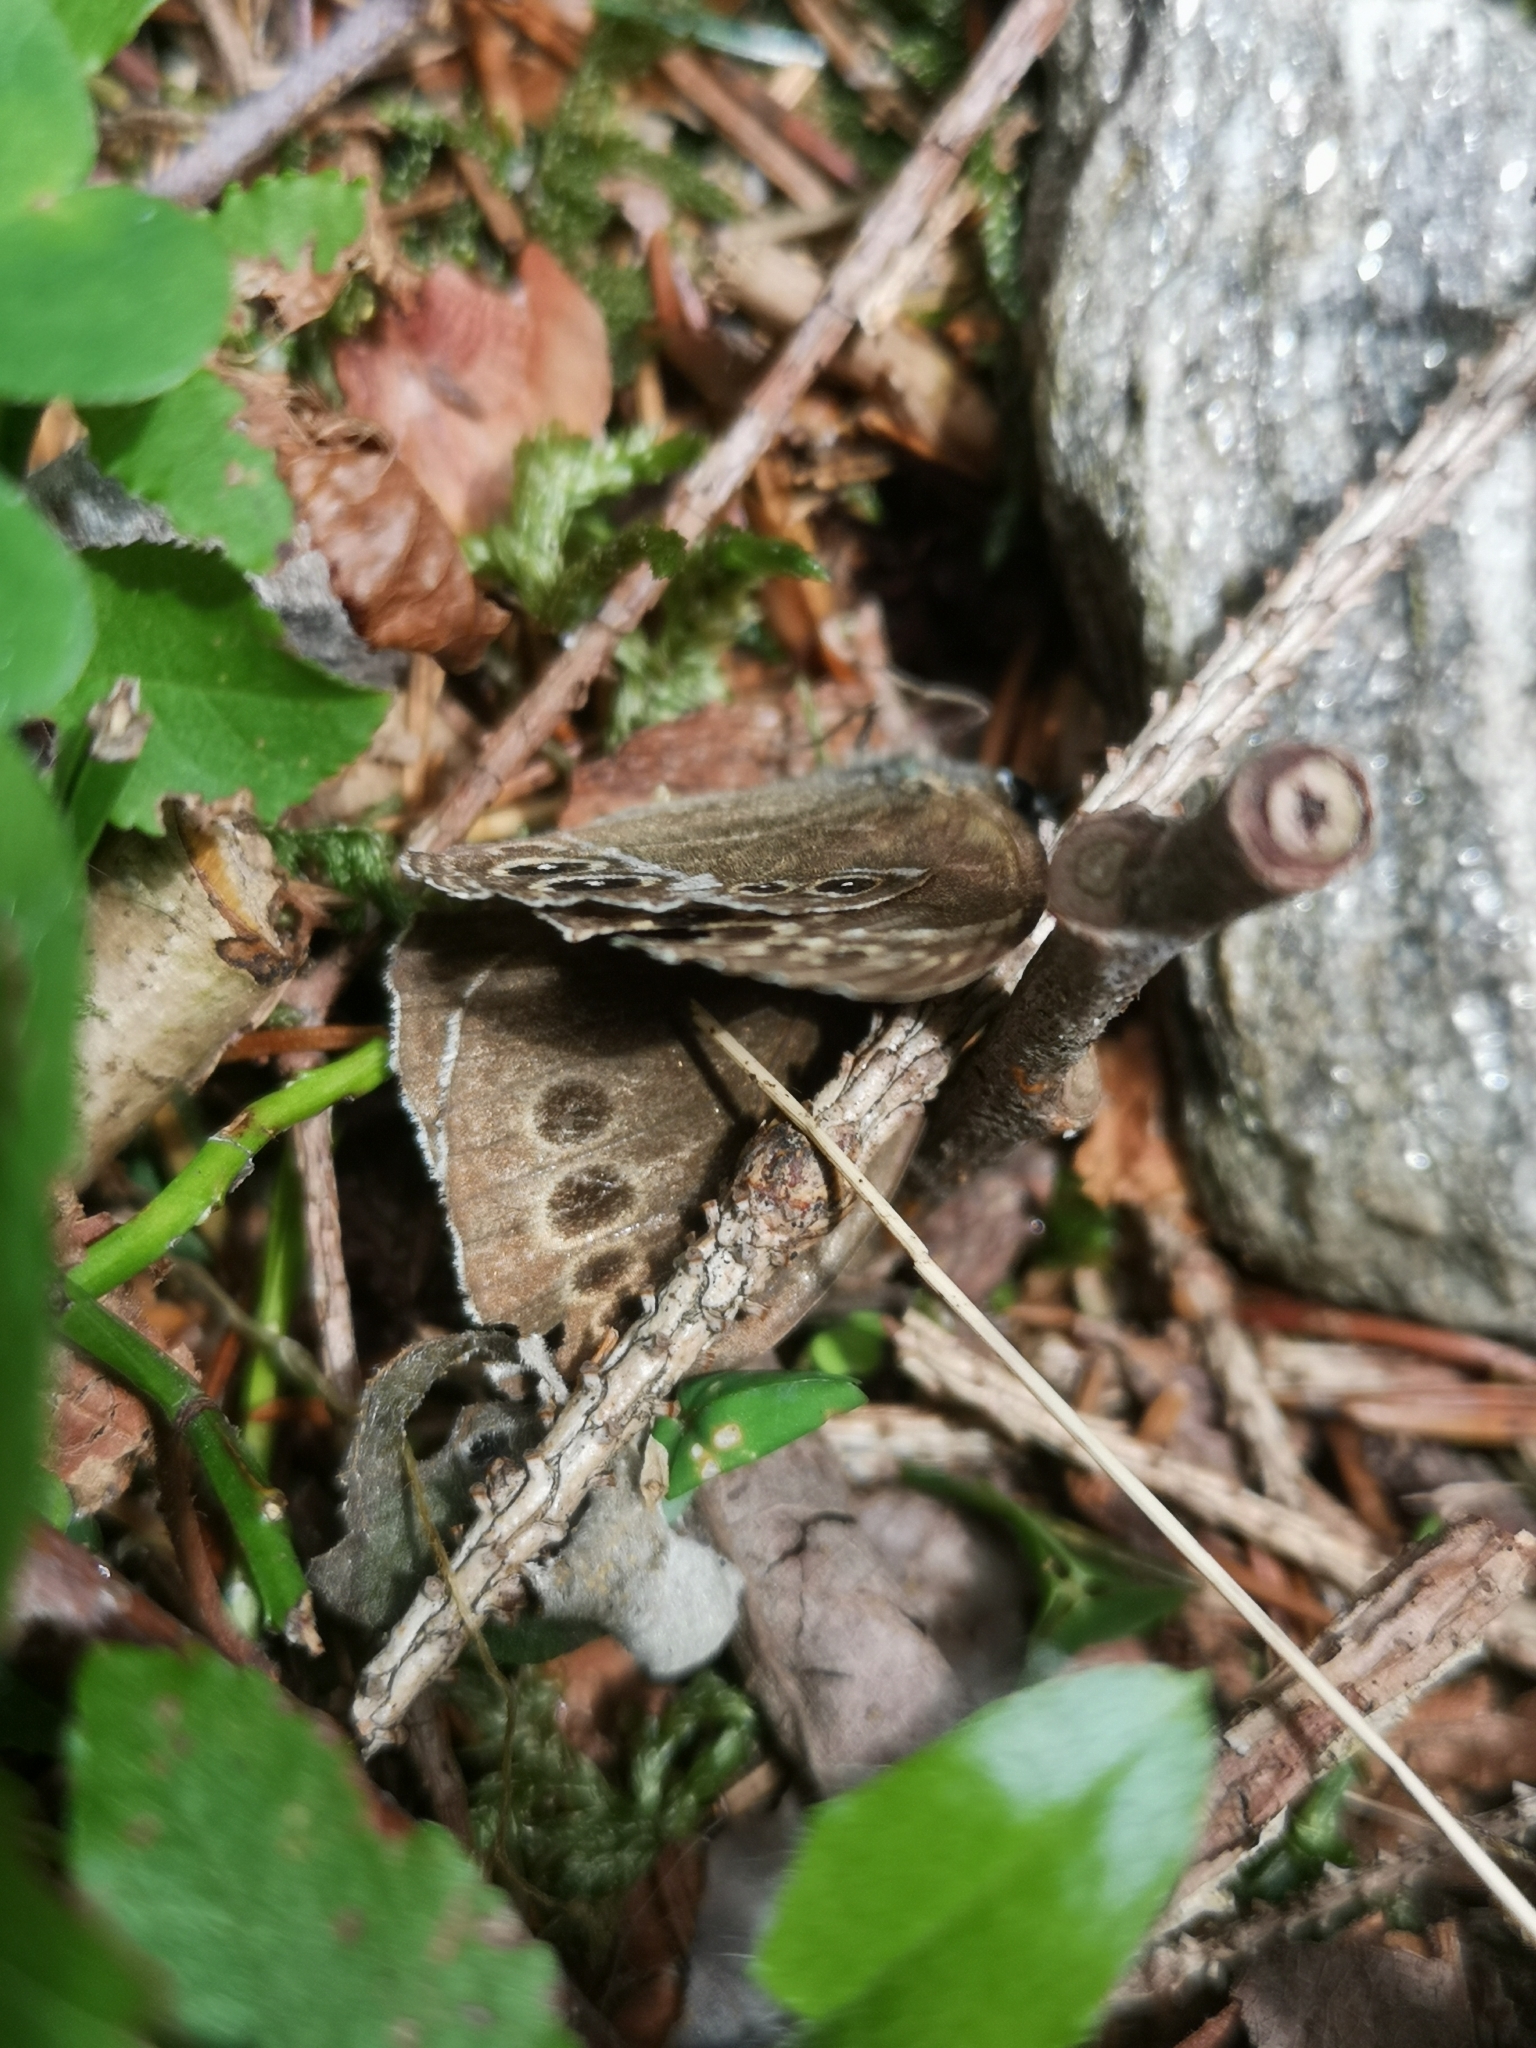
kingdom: Animalia
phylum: Arthropoda
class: Insecta
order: Lepidoptera
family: Nymphalidae
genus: Pararge
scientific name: Pararge Lopinga achine
